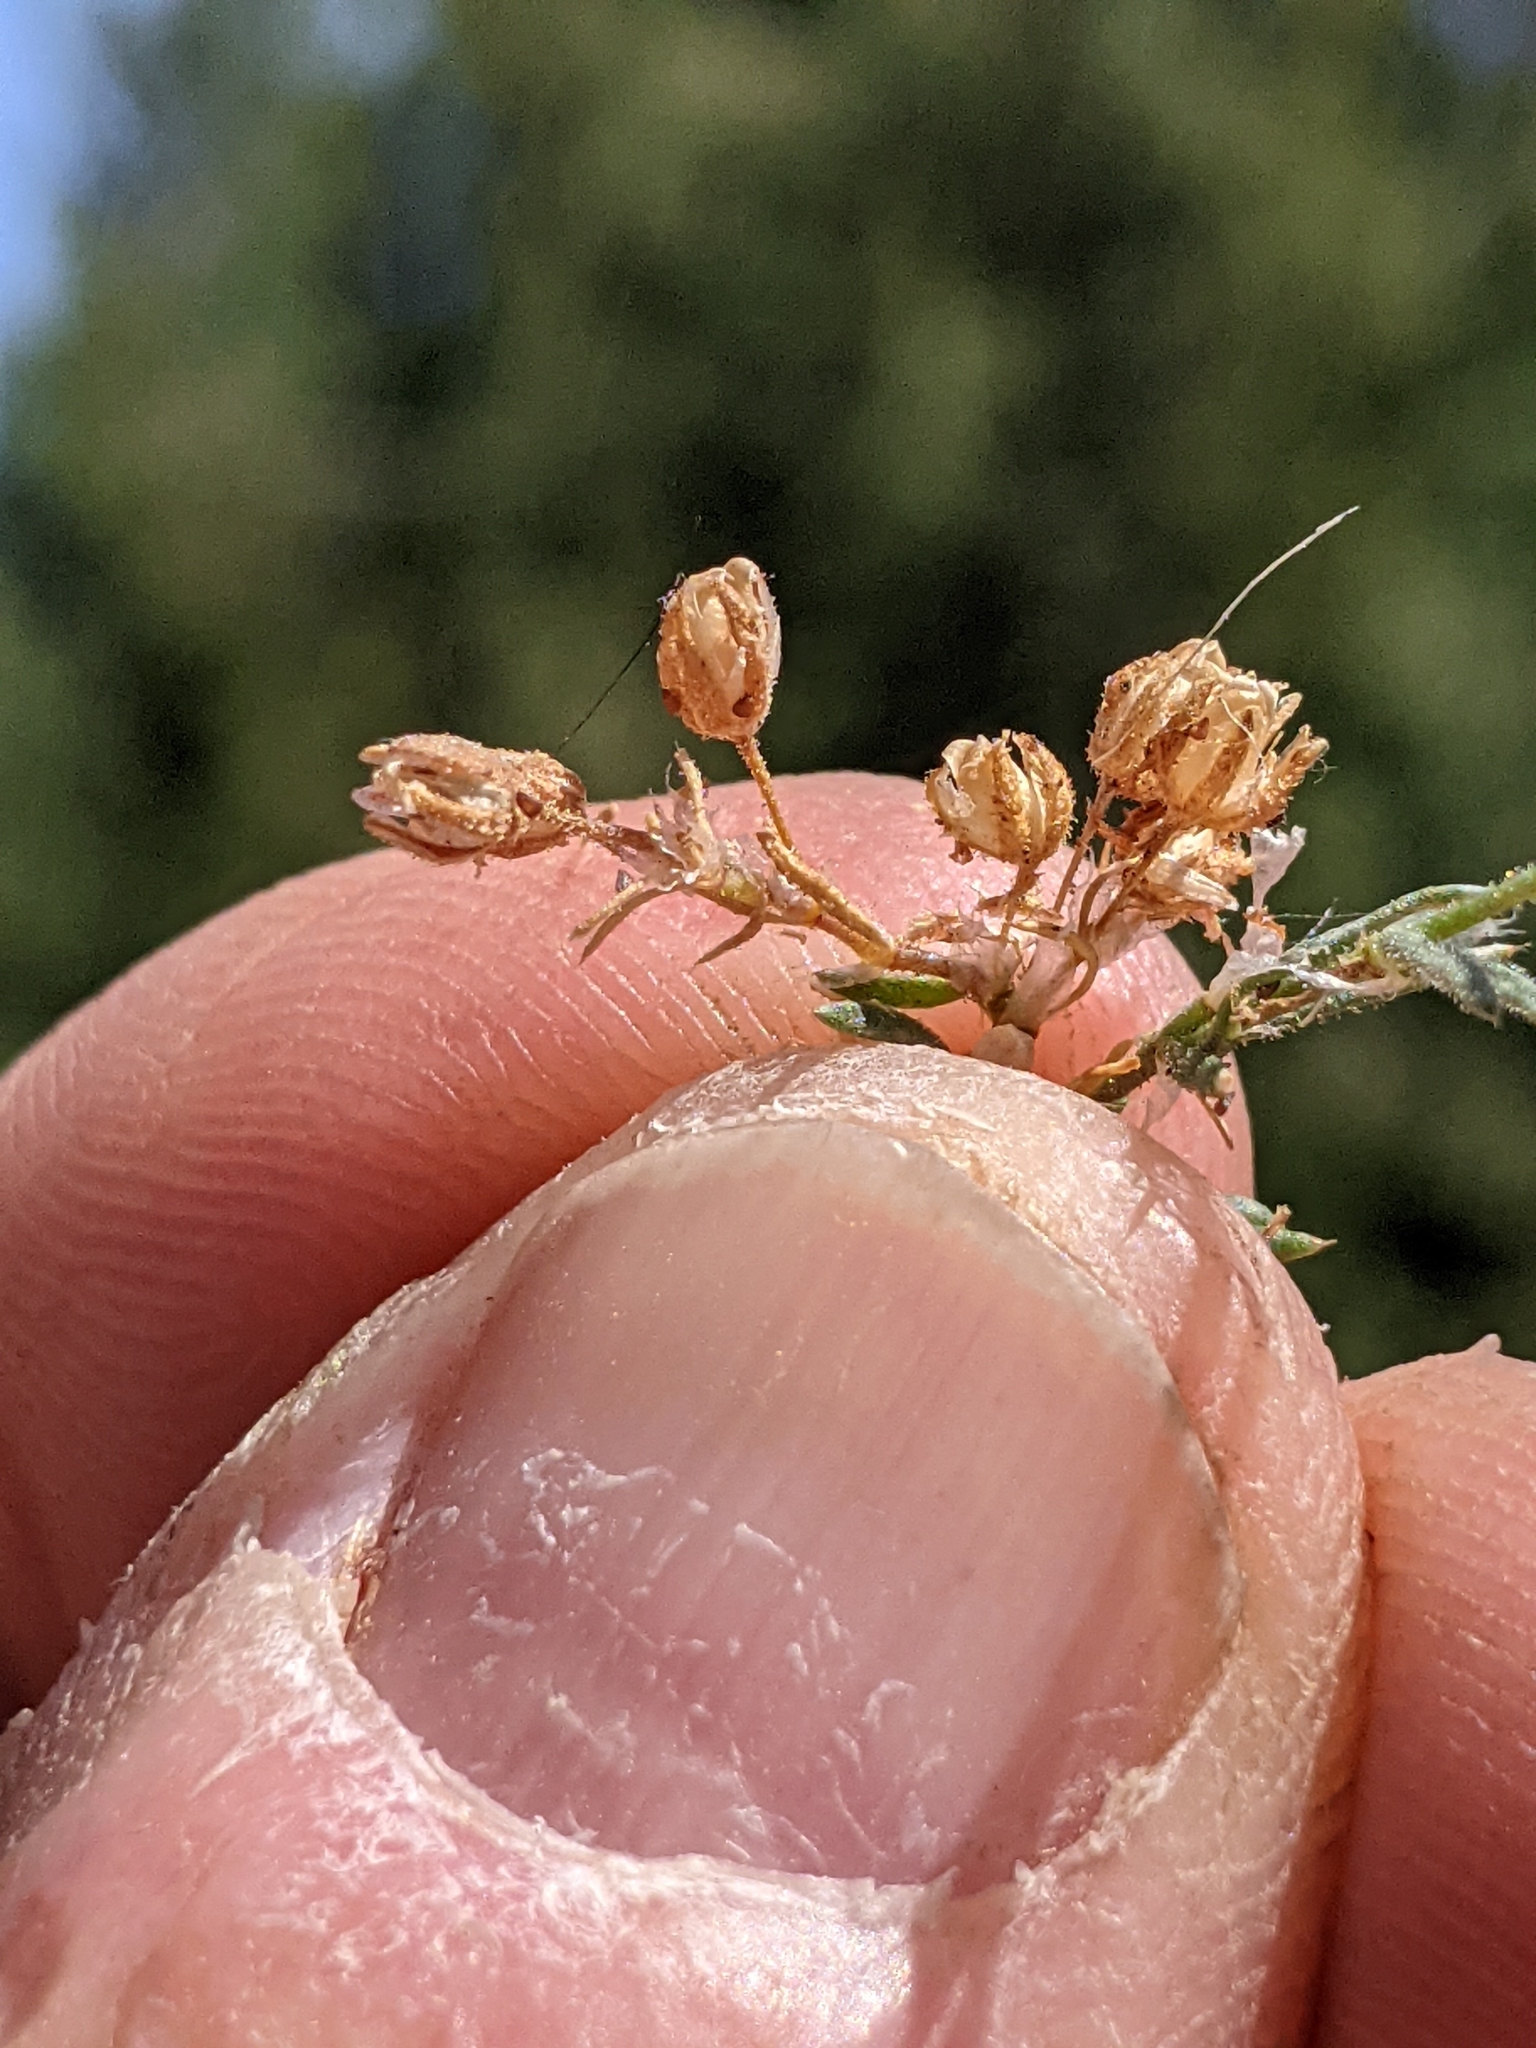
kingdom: Plantae
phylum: Tracheophyta
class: Magnoliopsida
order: Caryophyllales
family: Caryophyllaceae
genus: Spergularia
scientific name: Spergularia rubra
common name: Red sand-spurrey
